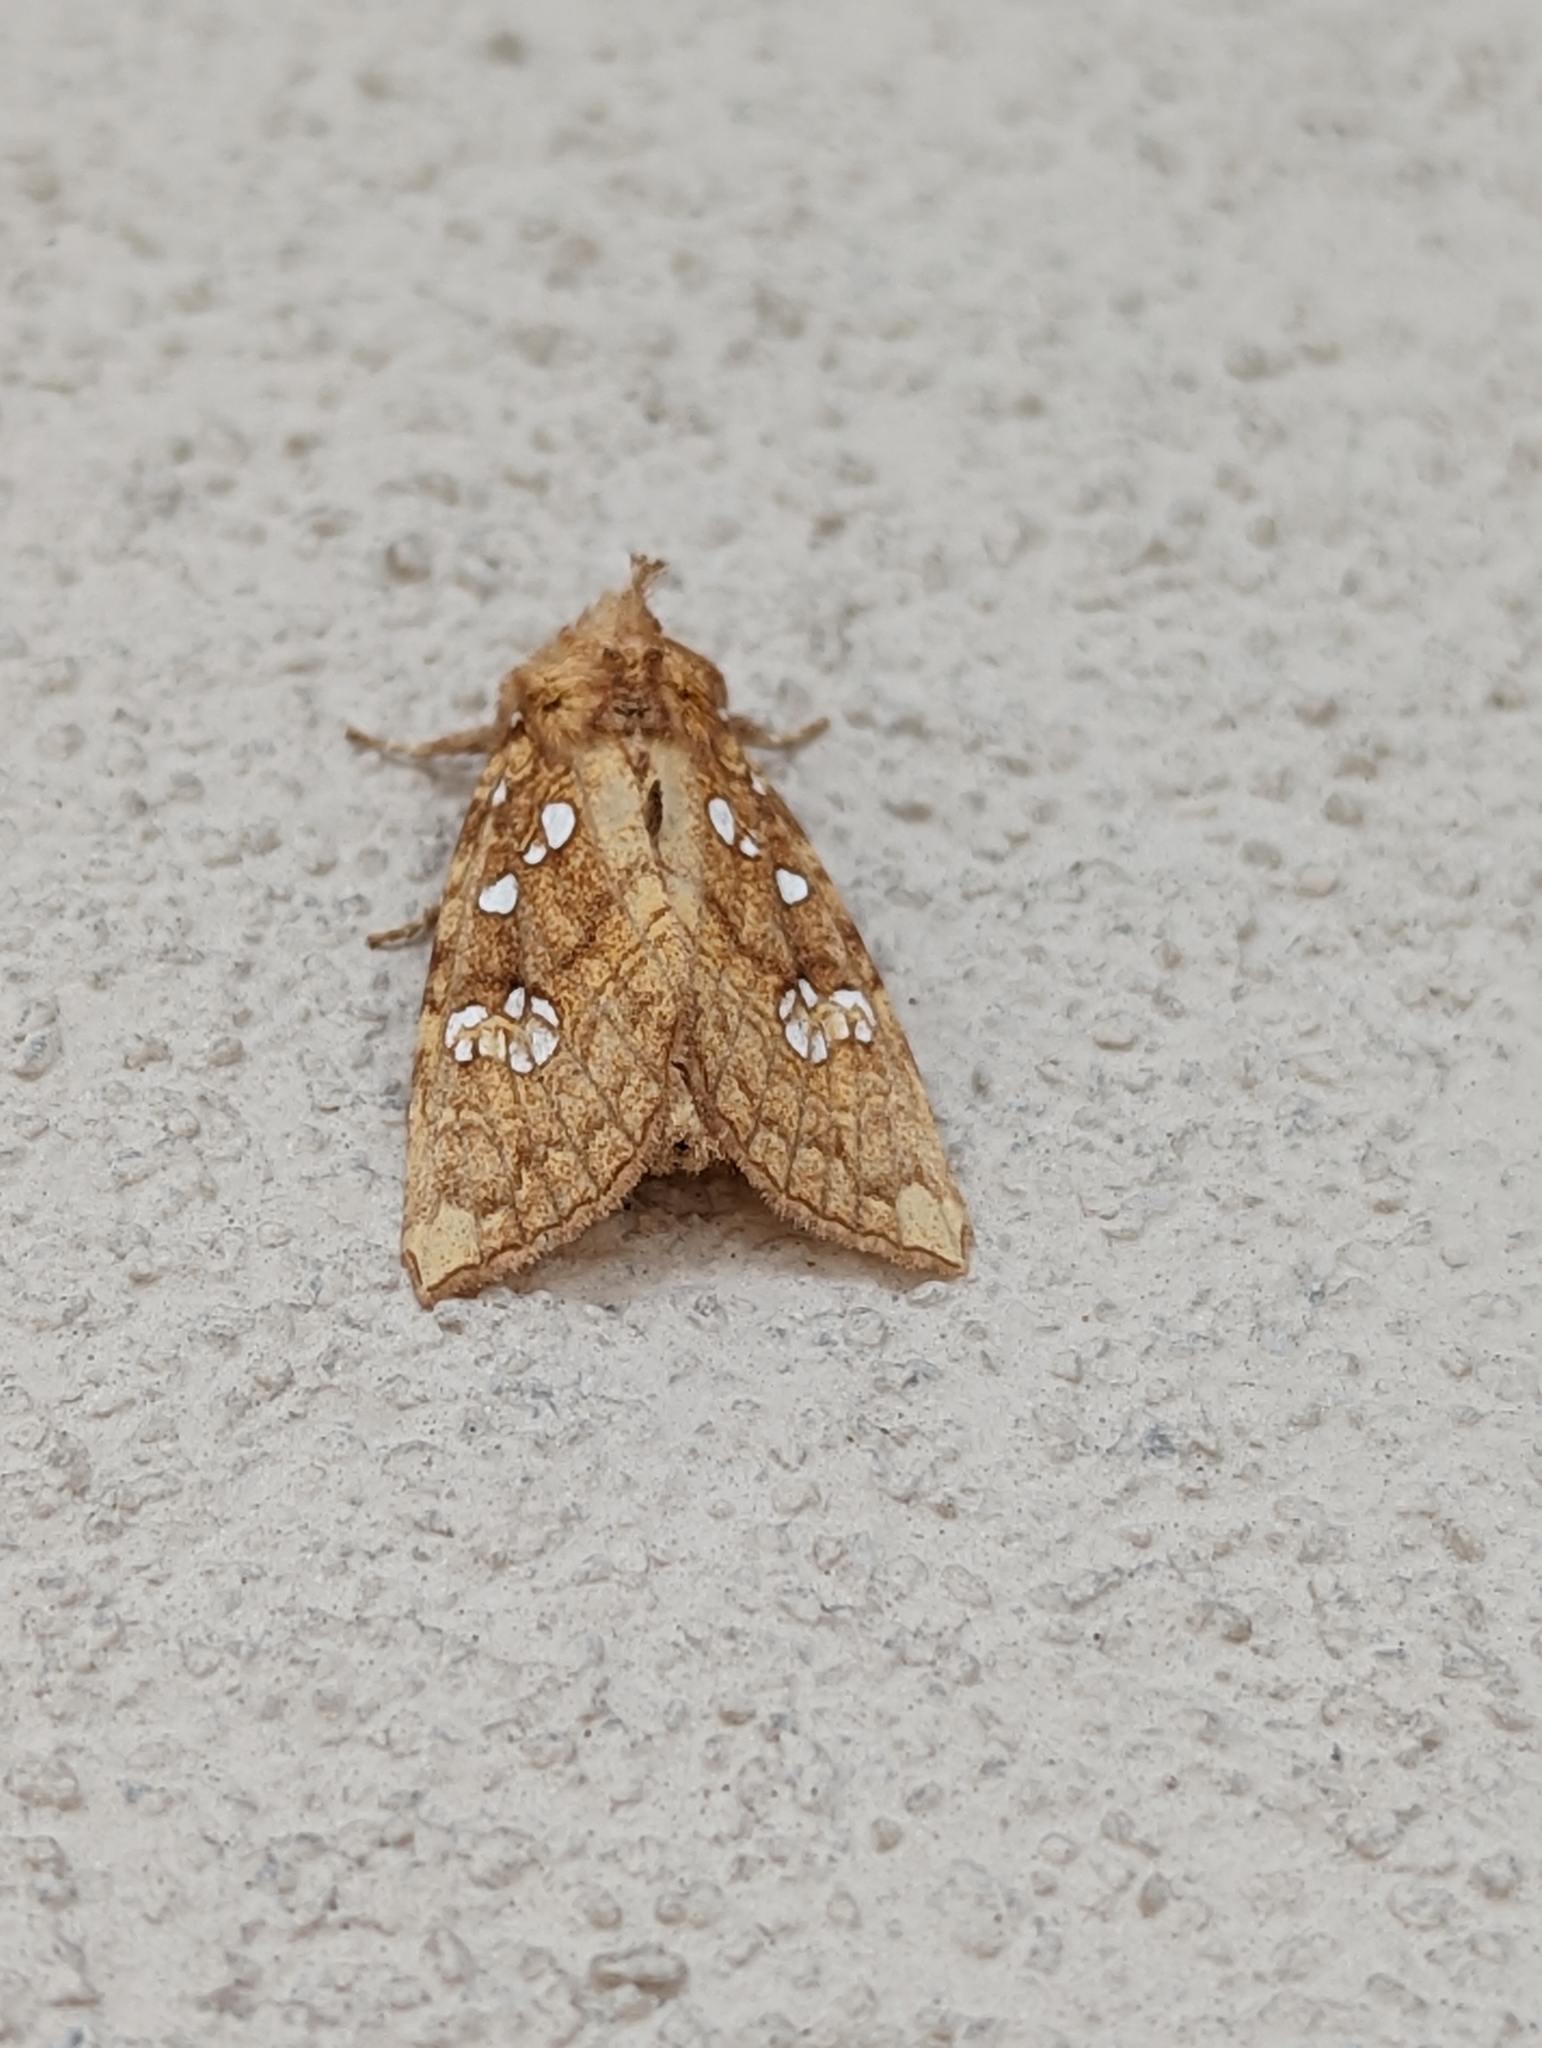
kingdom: Animalia
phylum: Arthropoda
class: Insecta
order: Lepidoptera
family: Noctuidae
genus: Papaipema
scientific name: Papaipema furcata
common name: Ash tip borer moth
